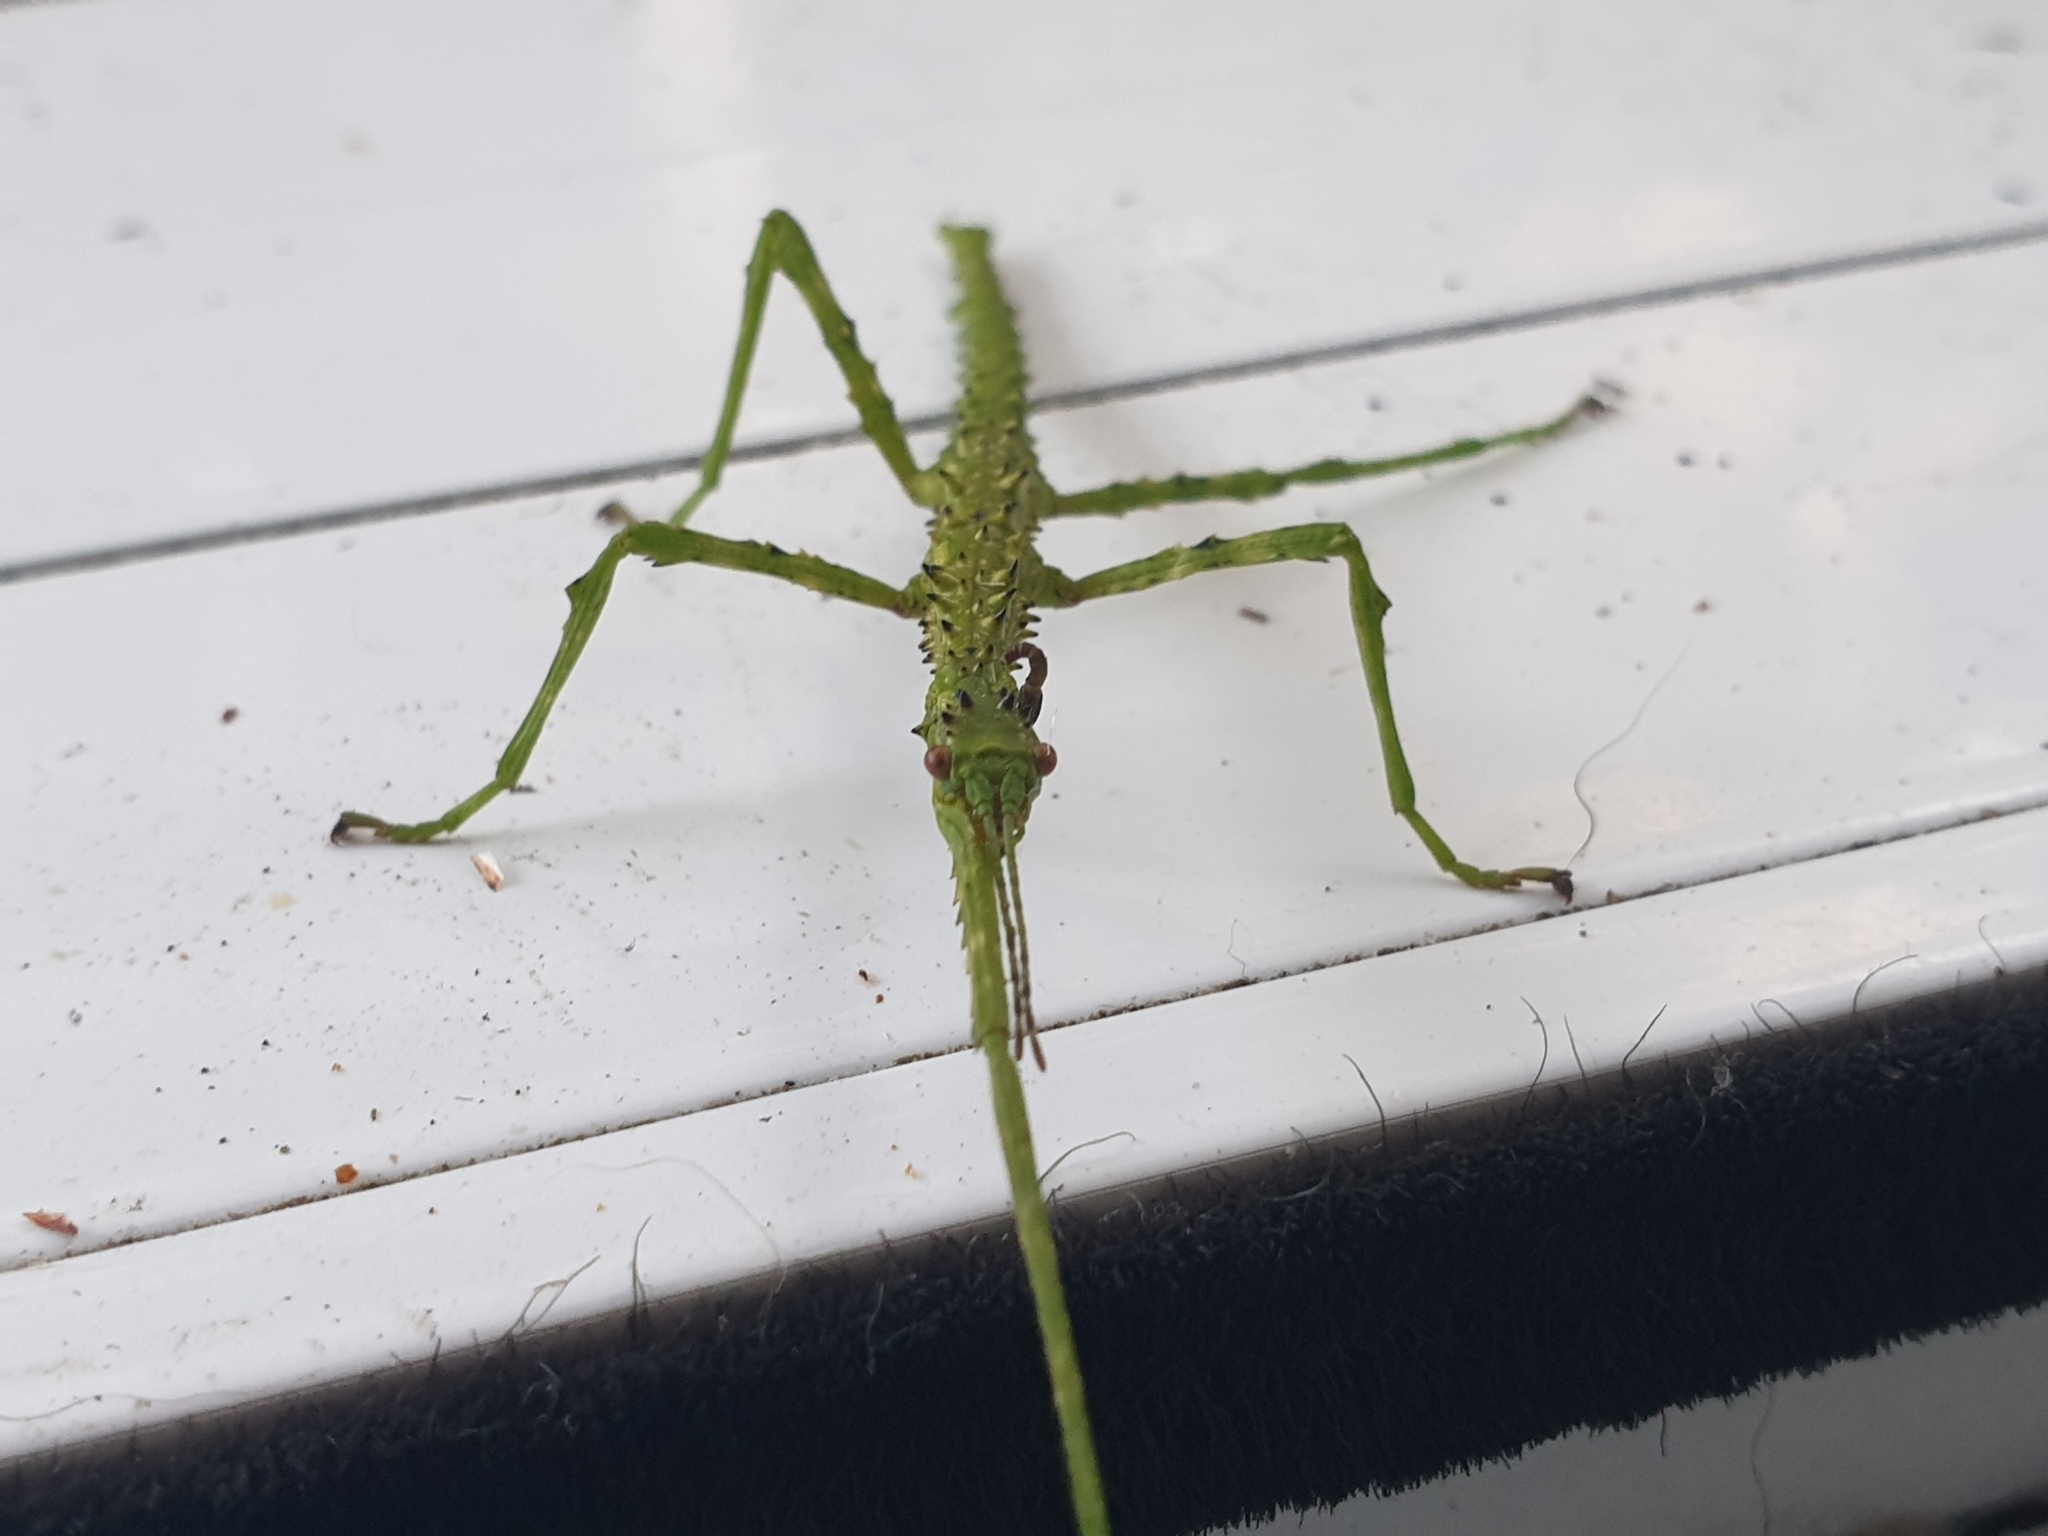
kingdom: Animalia
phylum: Arthropoda
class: Insecta
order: Phasmida
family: Phasmatidae
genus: Acanthoxyla
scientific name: Acanthoxyla prasina
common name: Black-spined stick insect
